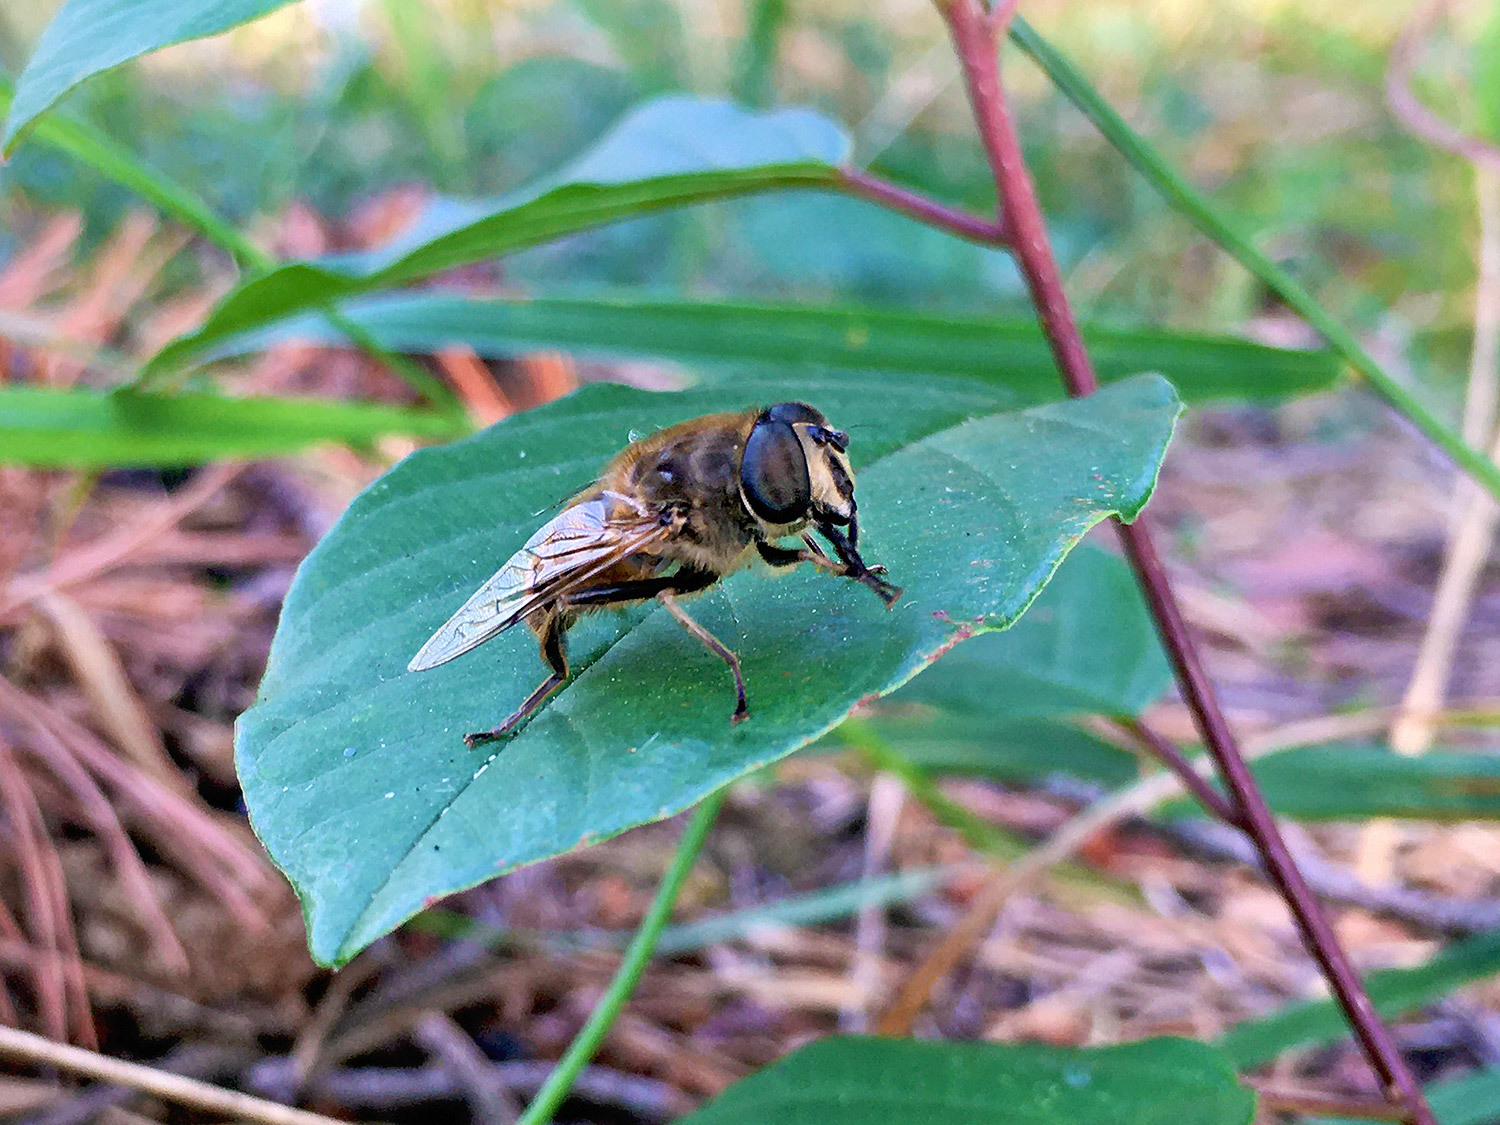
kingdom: Animalia
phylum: Arthropoda
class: Insecta
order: Diptera
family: Syrphidae
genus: Eristalis
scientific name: Eristalis tenax
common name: Drone fly
